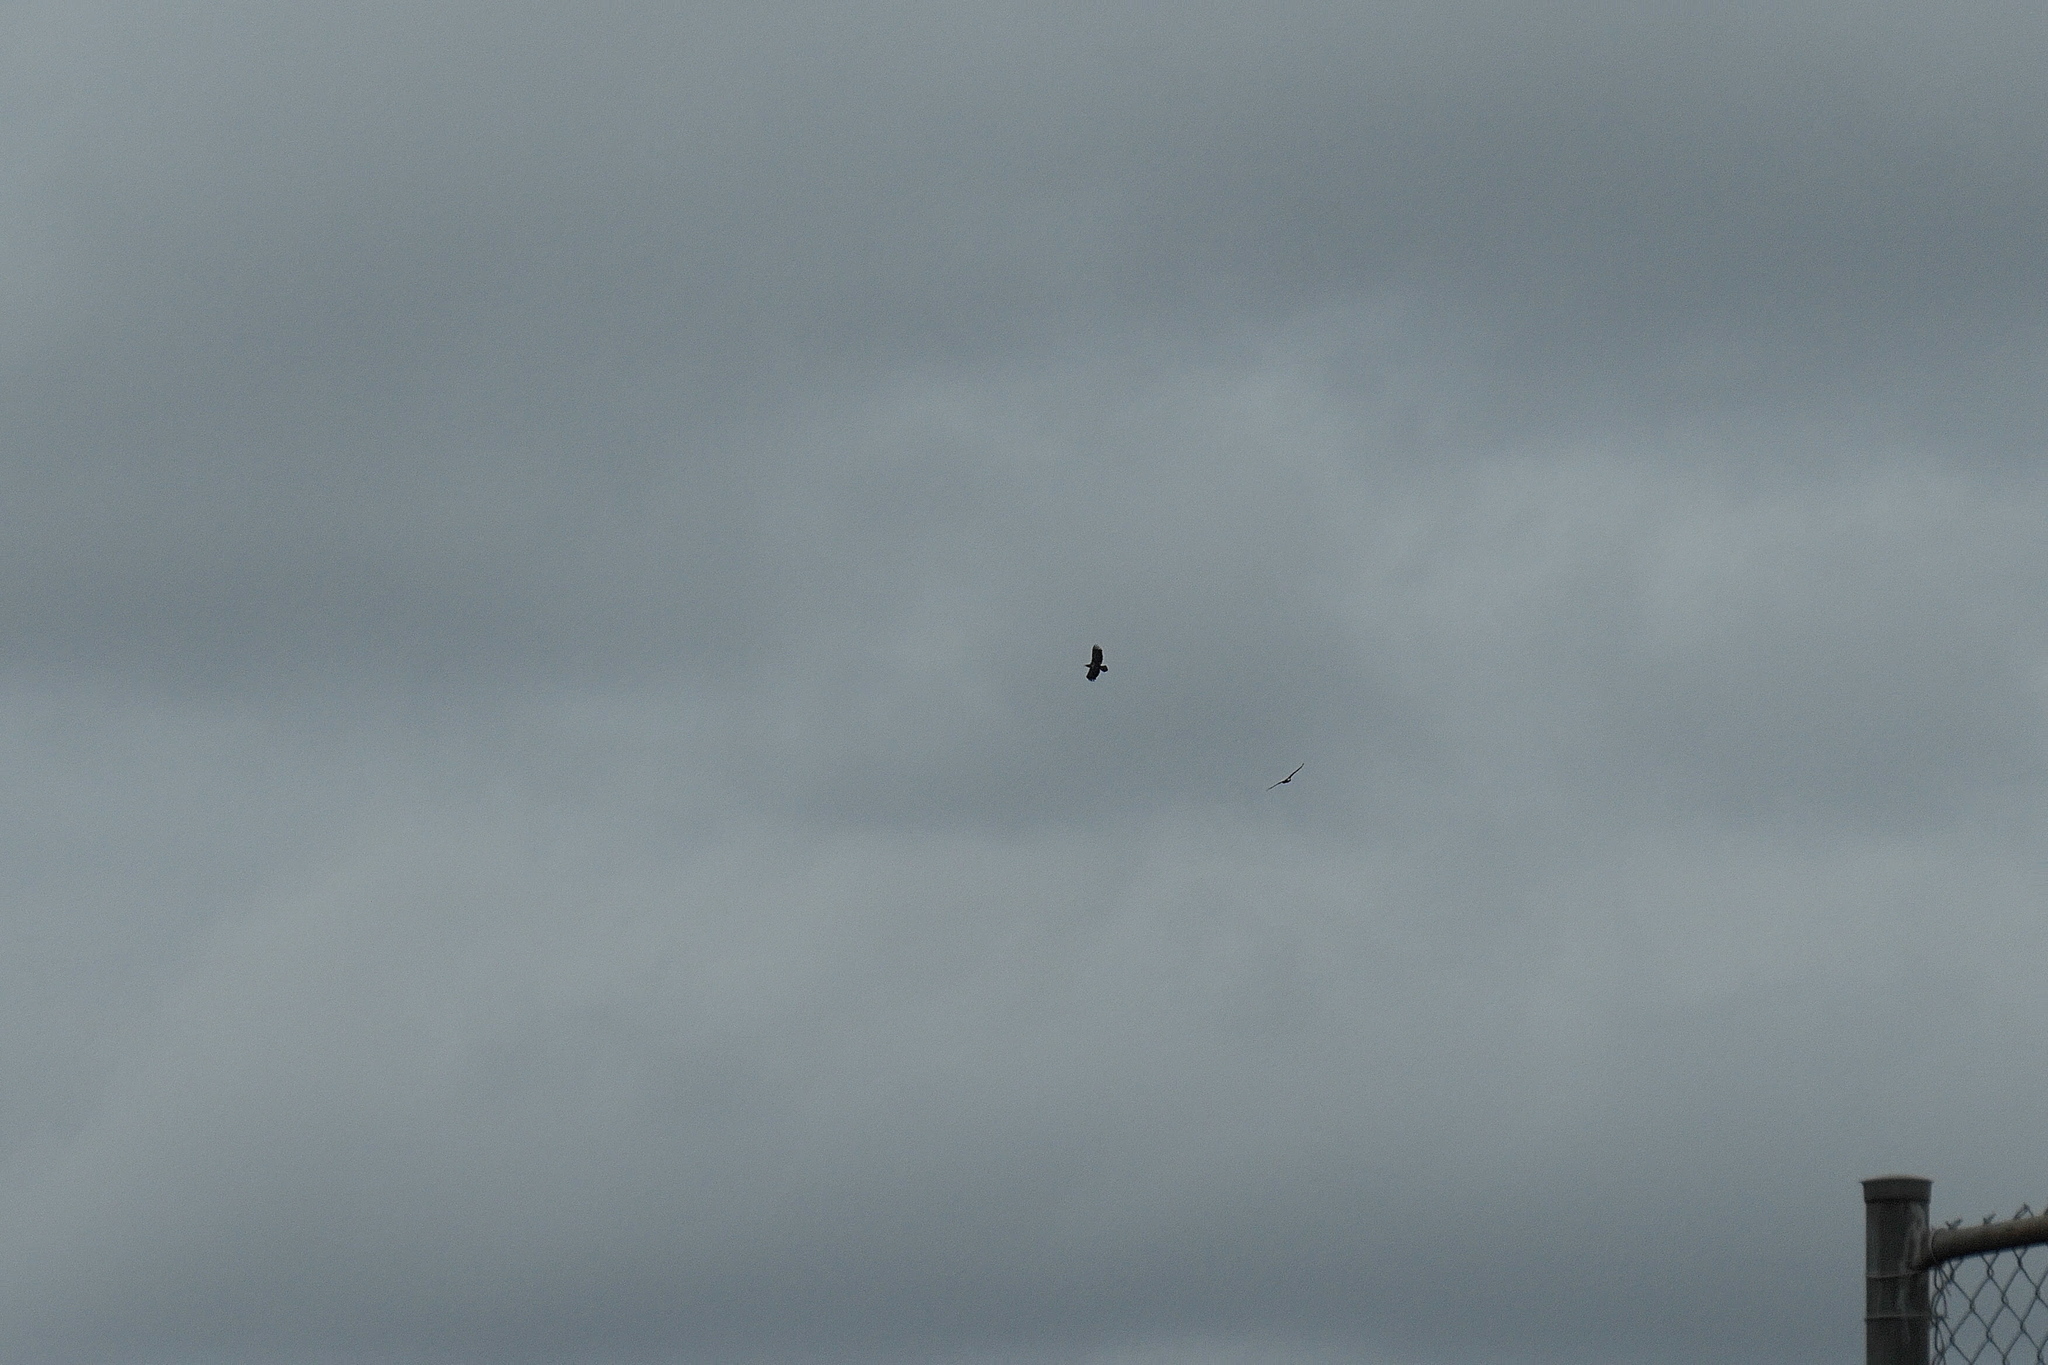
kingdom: Animalia
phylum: Chordata
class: Aves
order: Accipitriformes
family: Accipitridae
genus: Haliaeetus
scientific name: Haliaeetus leucocephalus
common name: Bald eagle
